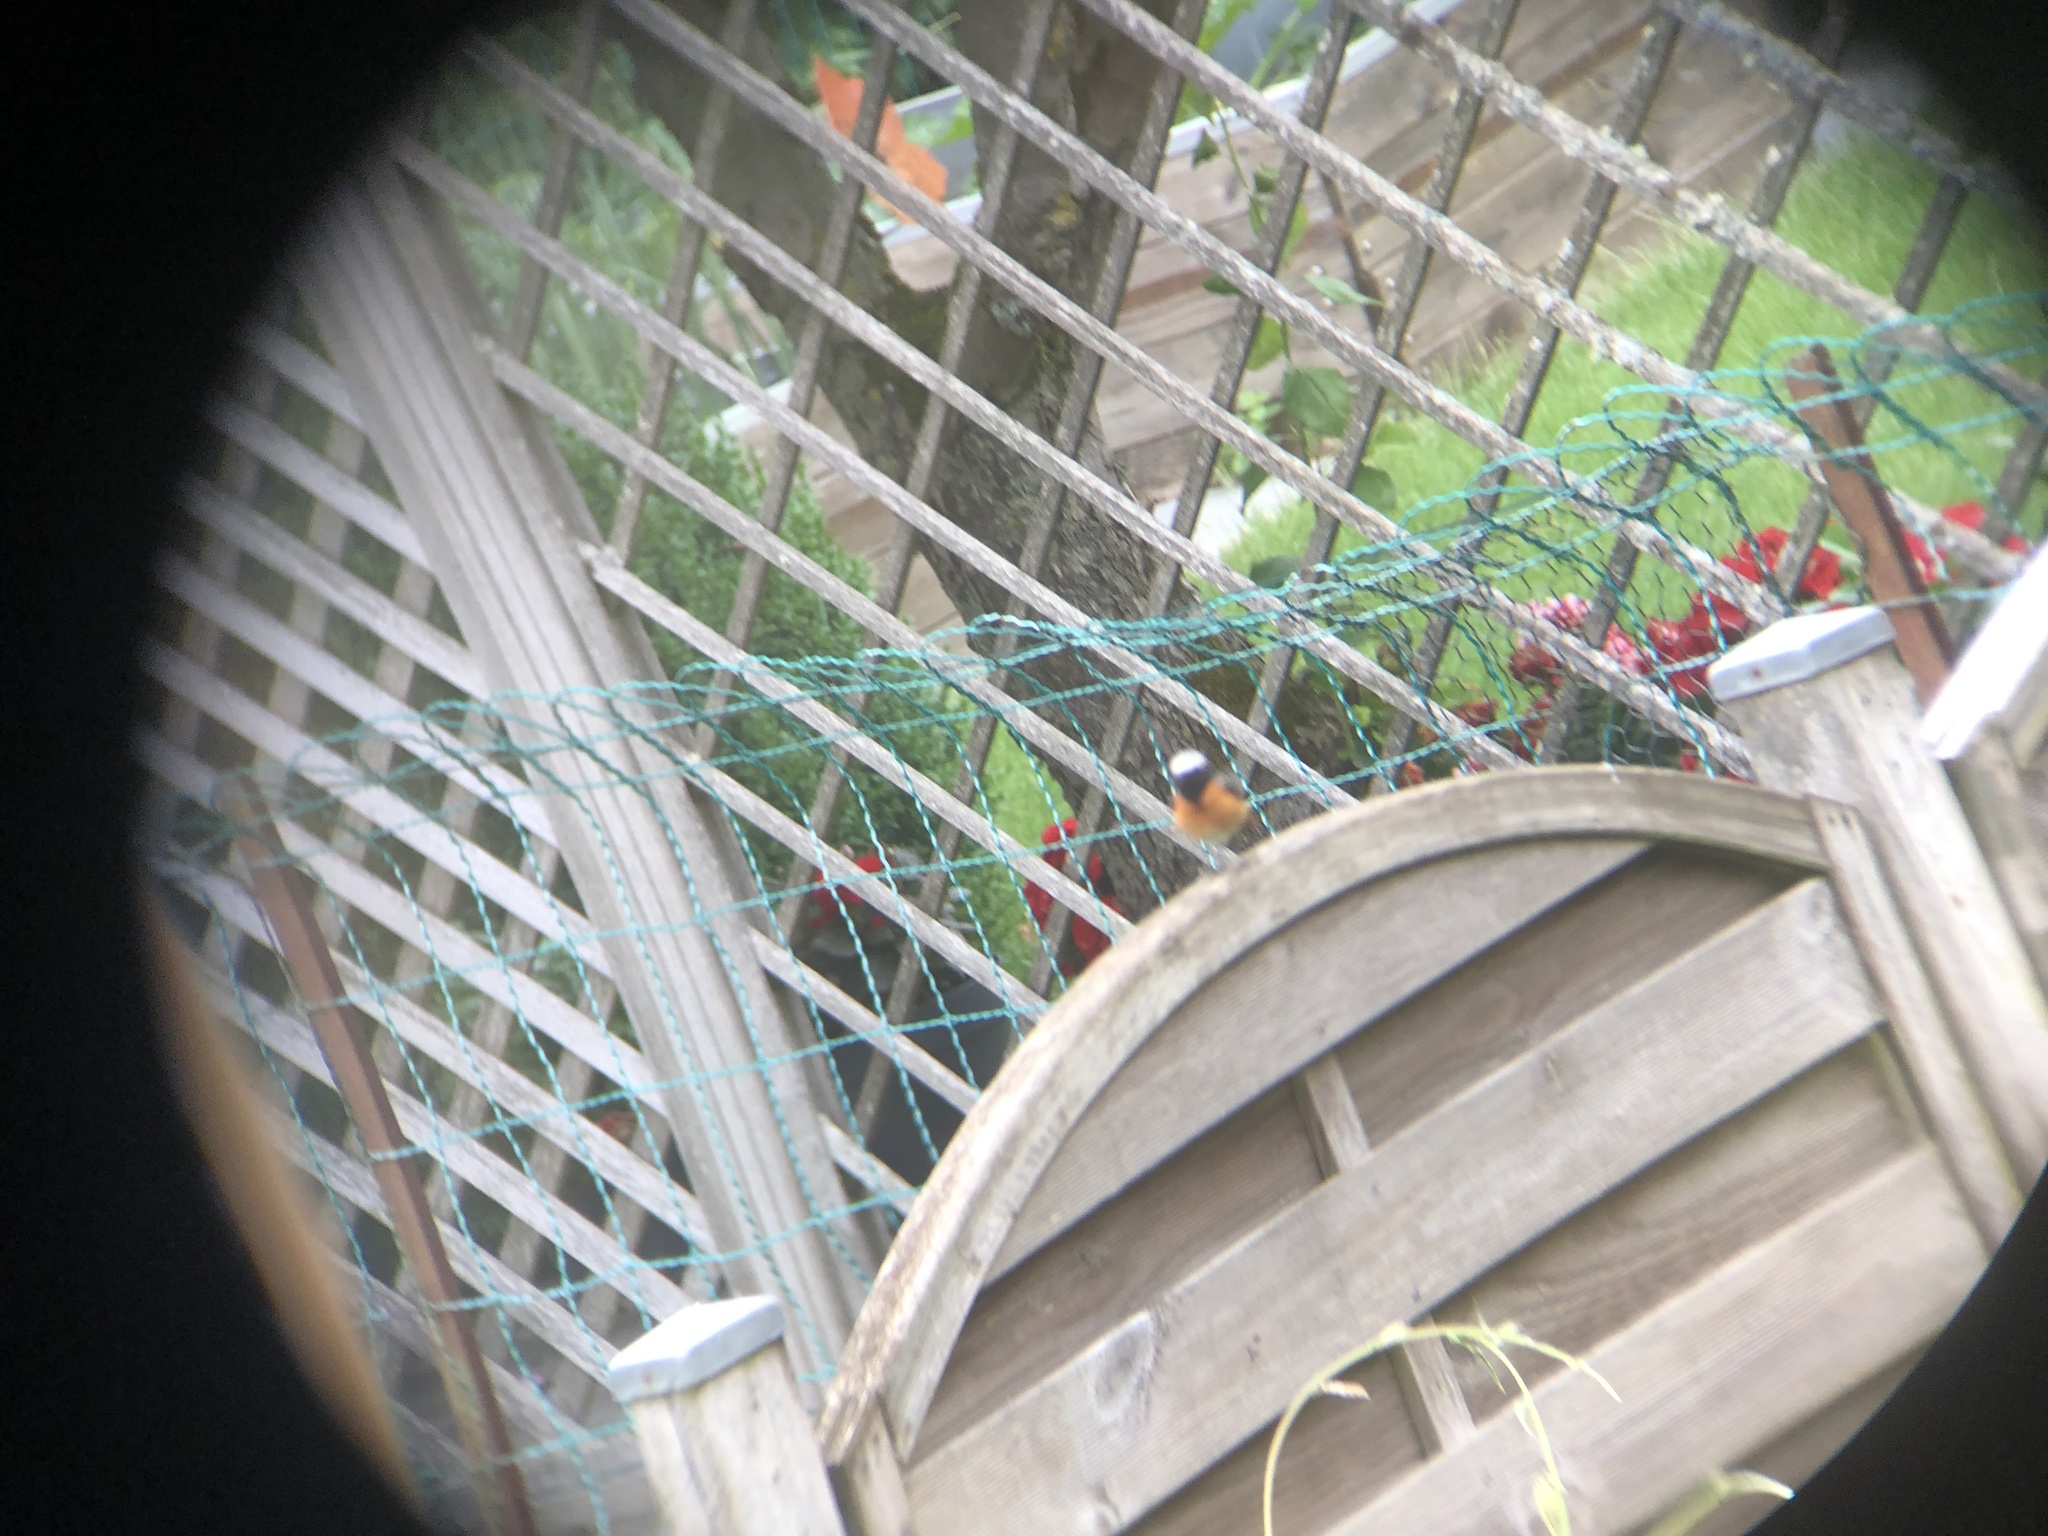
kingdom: Animalia
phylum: Chordata
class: Aves
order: Passeriformes
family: Muscicapidae
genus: Phoenicurus
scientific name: Phoenicurus phoenicurus
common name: Common redstart
